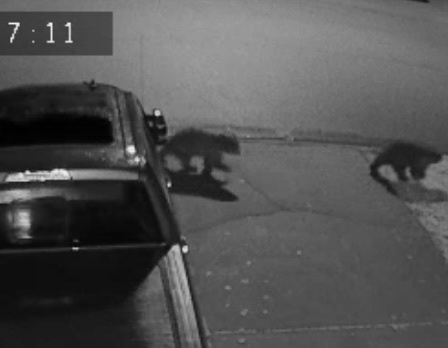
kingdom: Animalia
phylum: Chordata
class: Mammalia
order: Carnivora
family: Ursidae
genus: Ursus
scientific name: Ursus americanus
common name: American black bear
